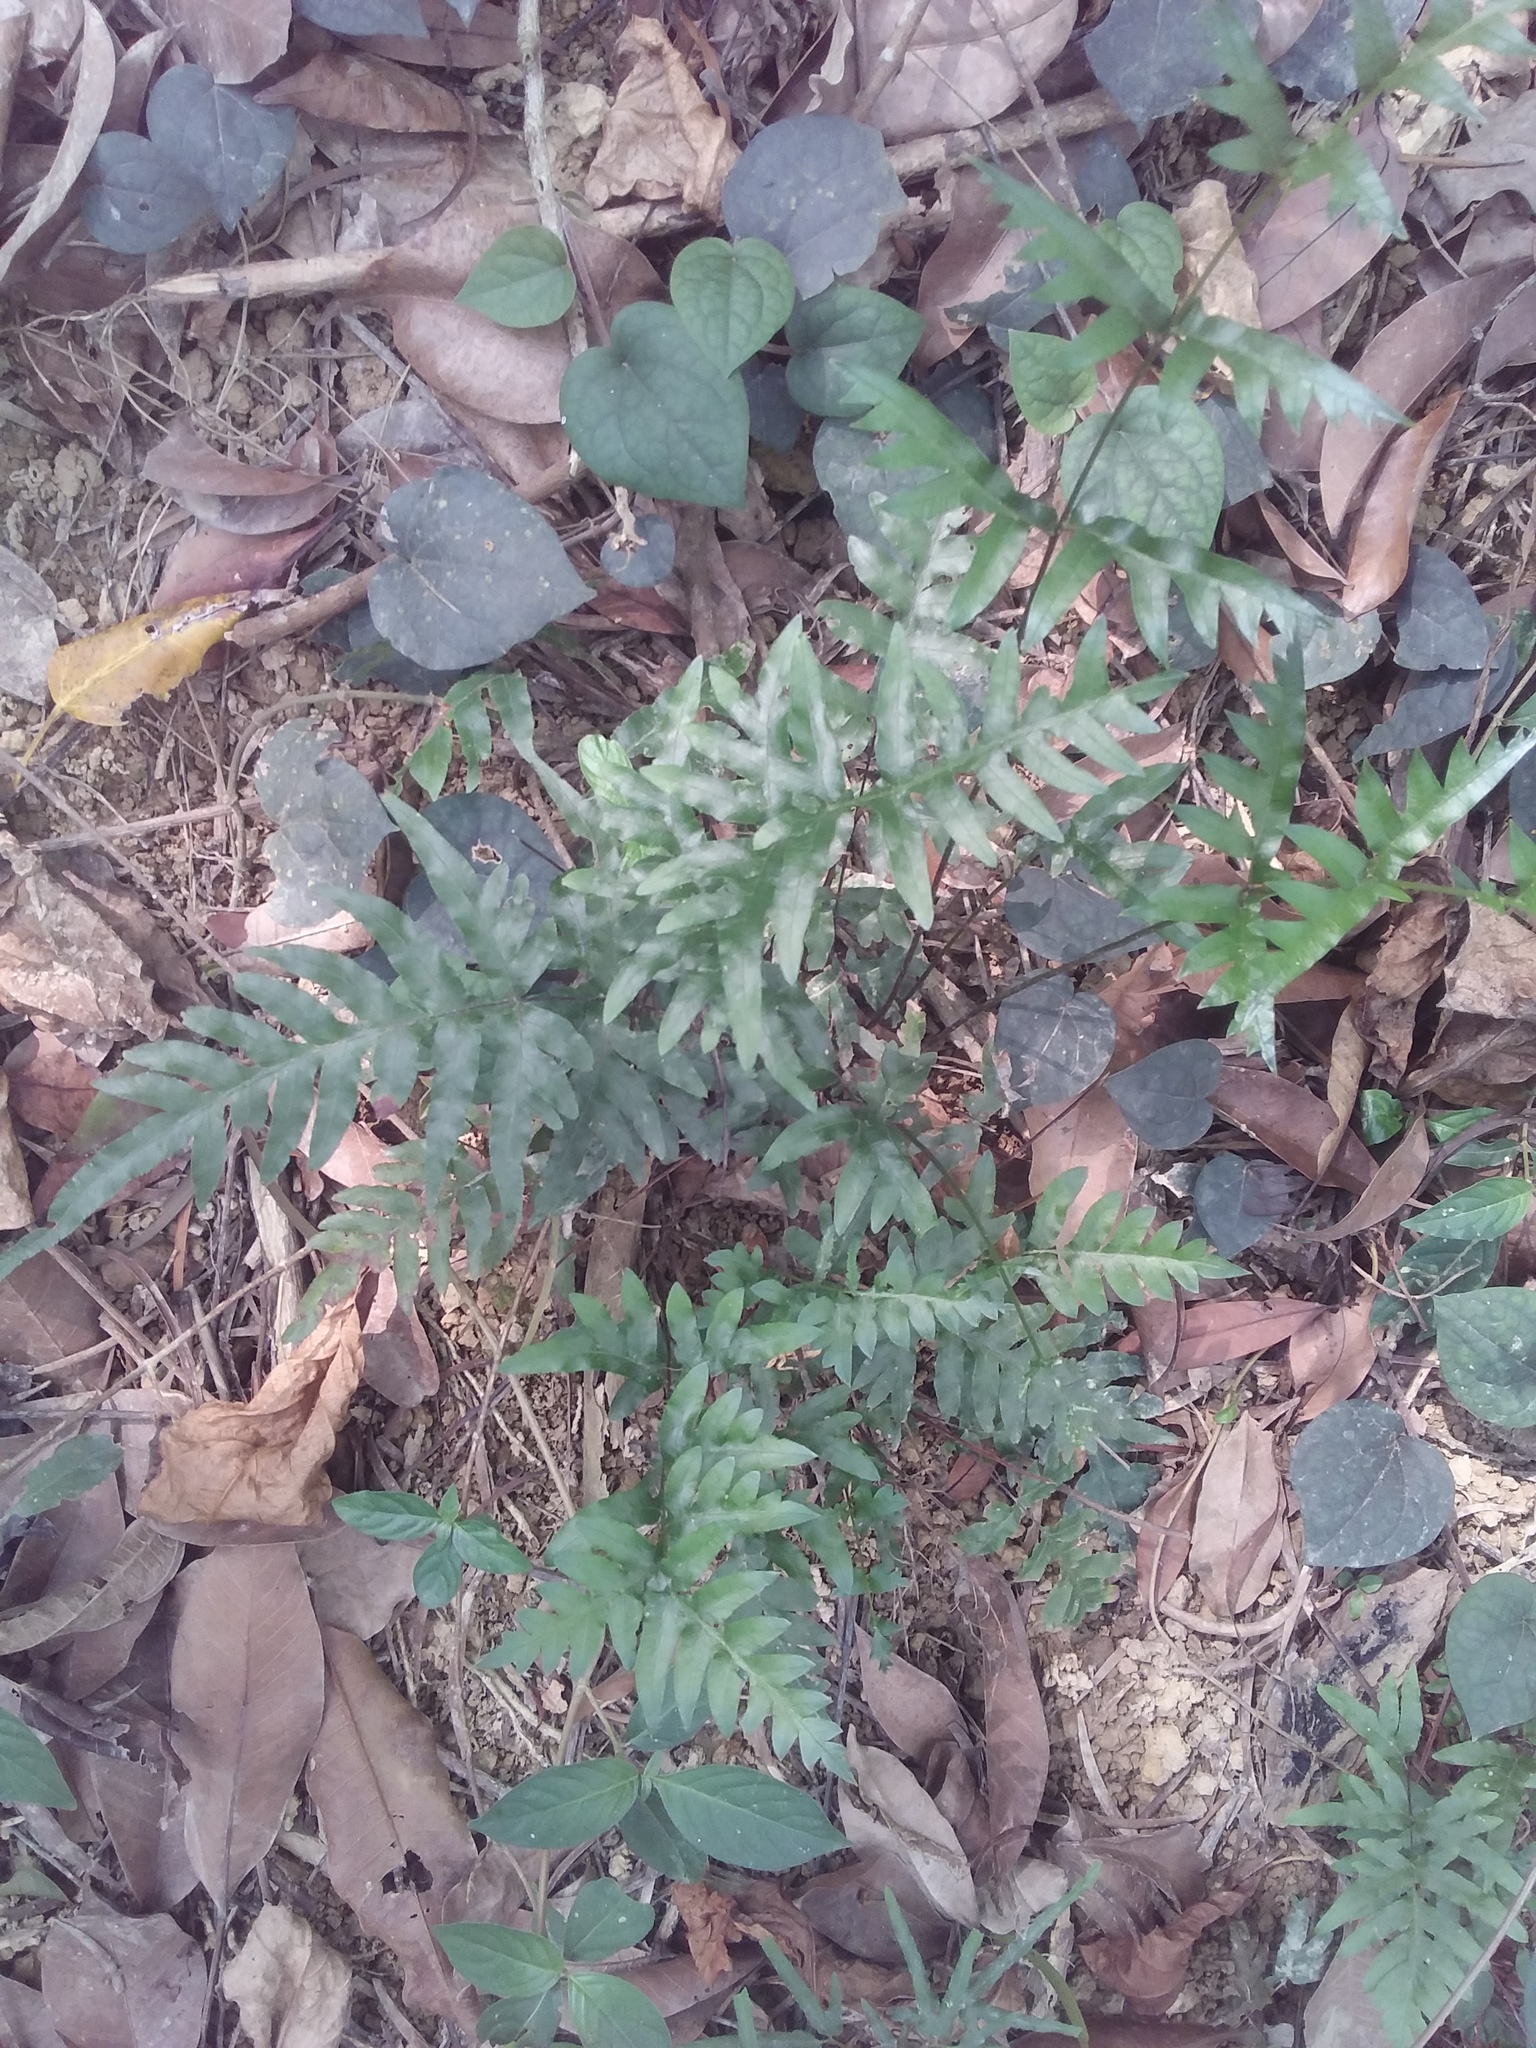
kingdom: Plantae
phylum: Tracheophyta
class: Polypodiopsida
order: Polypodiales
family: Pteridaceae
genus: Pteris
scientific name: Pteris semipinnata
